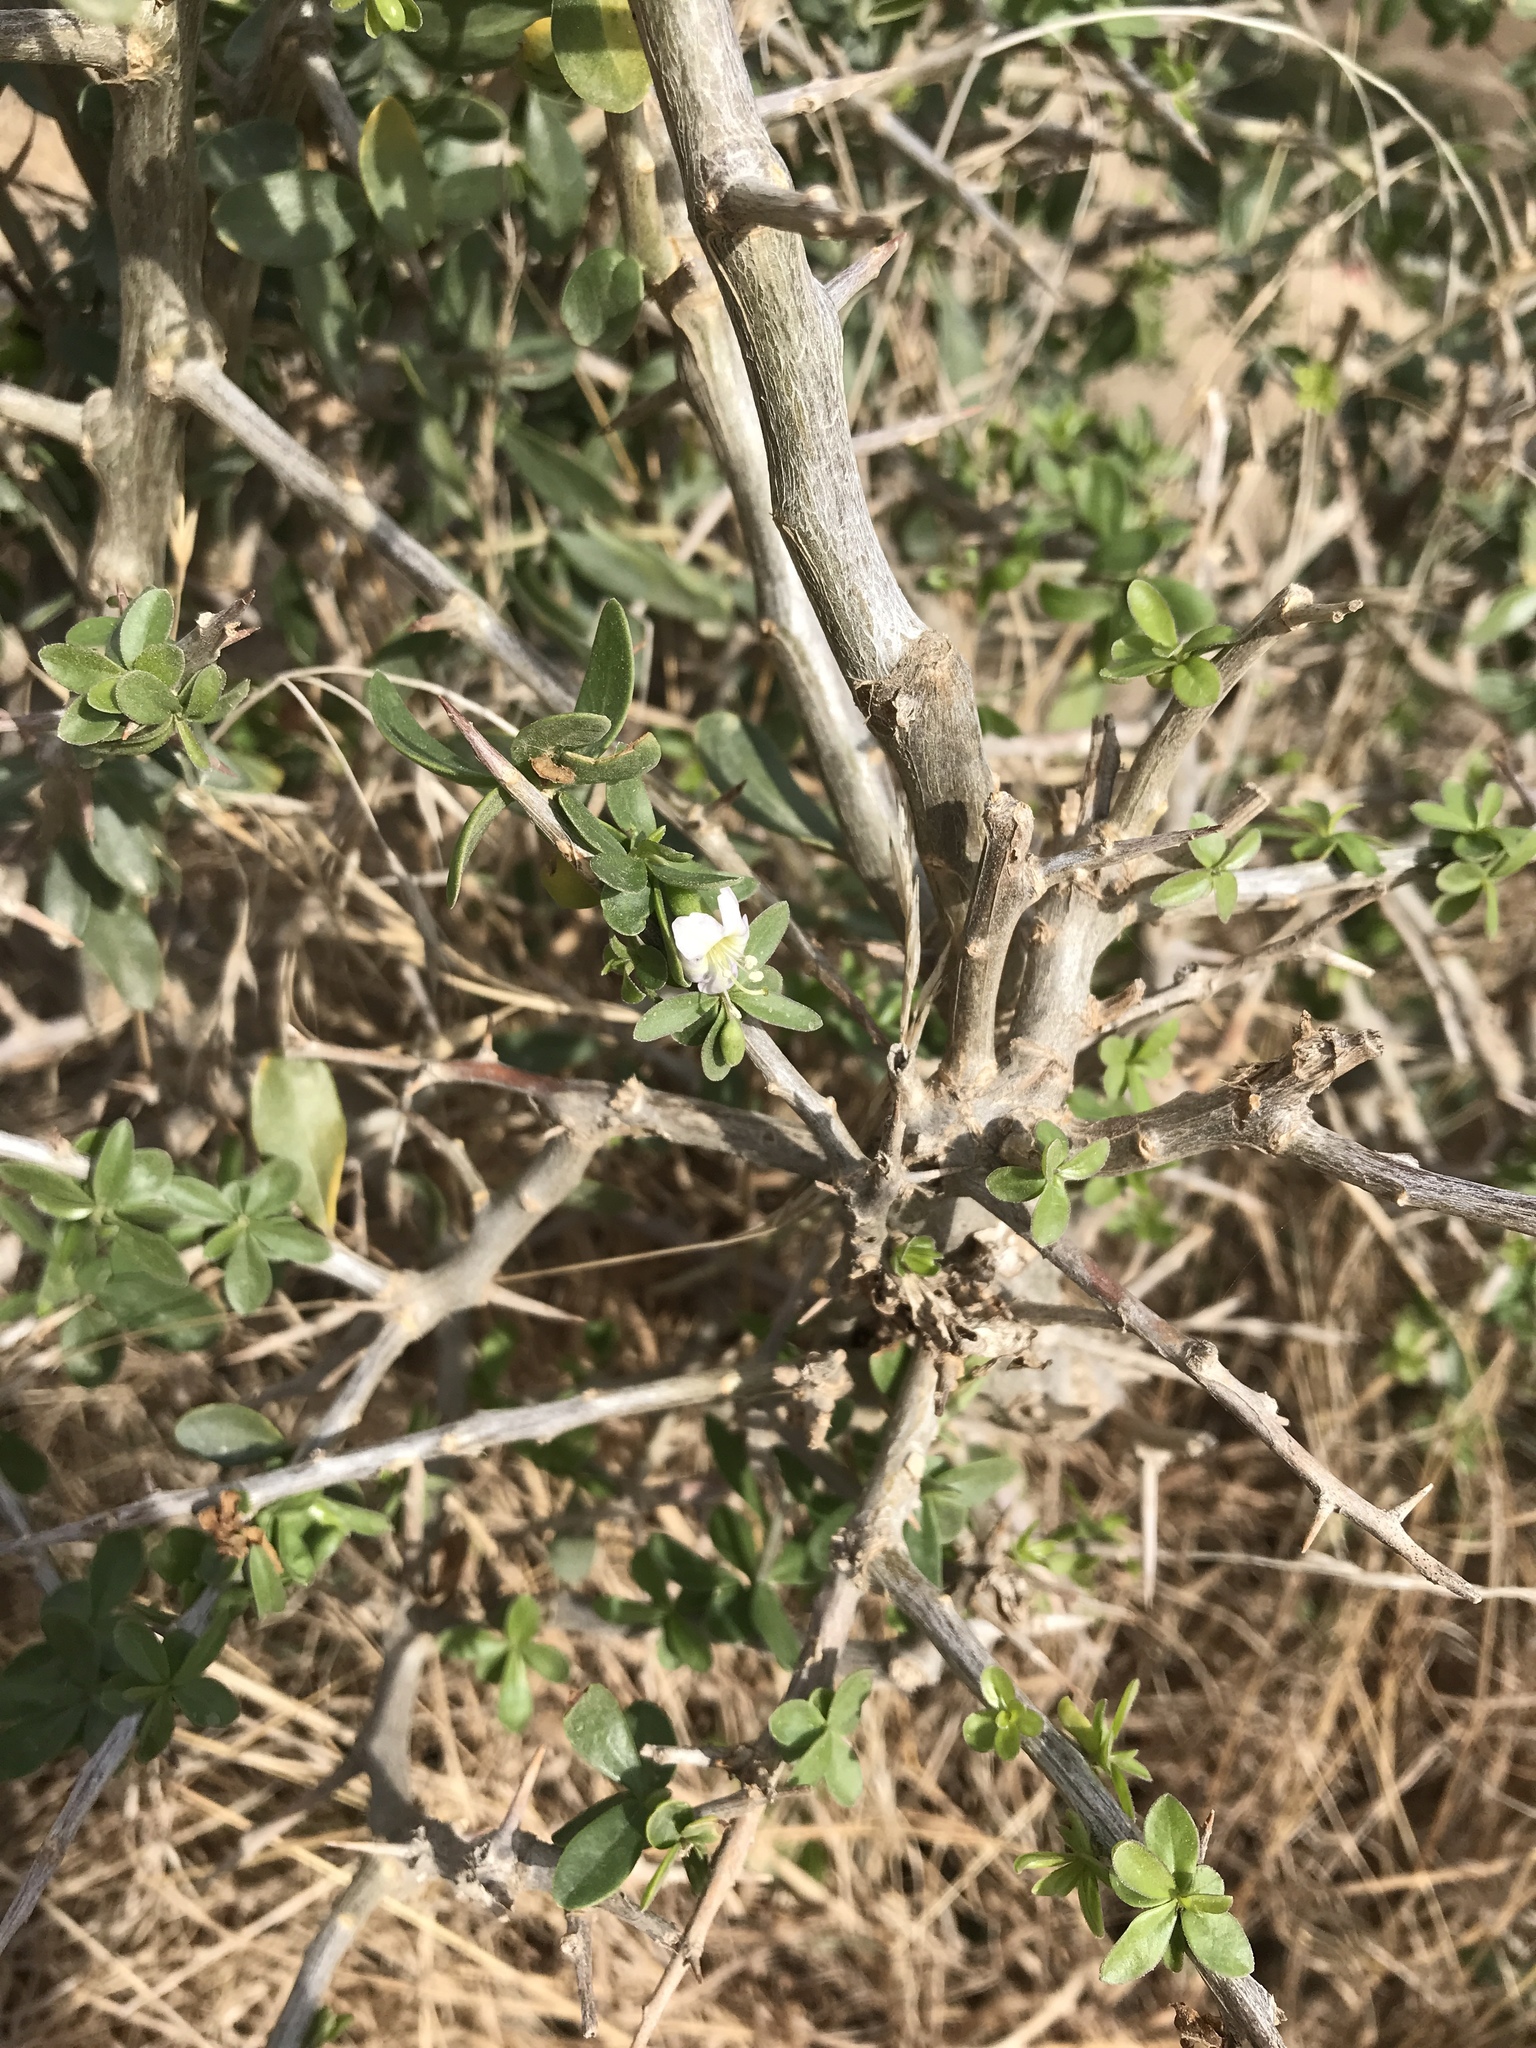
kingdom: Plantae
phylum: Tracheophyta
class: Magnoliopsida
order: Solanales
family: Solanaceae
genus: Lycium
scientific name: Lycium ferocissimum
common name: African boxthorn
